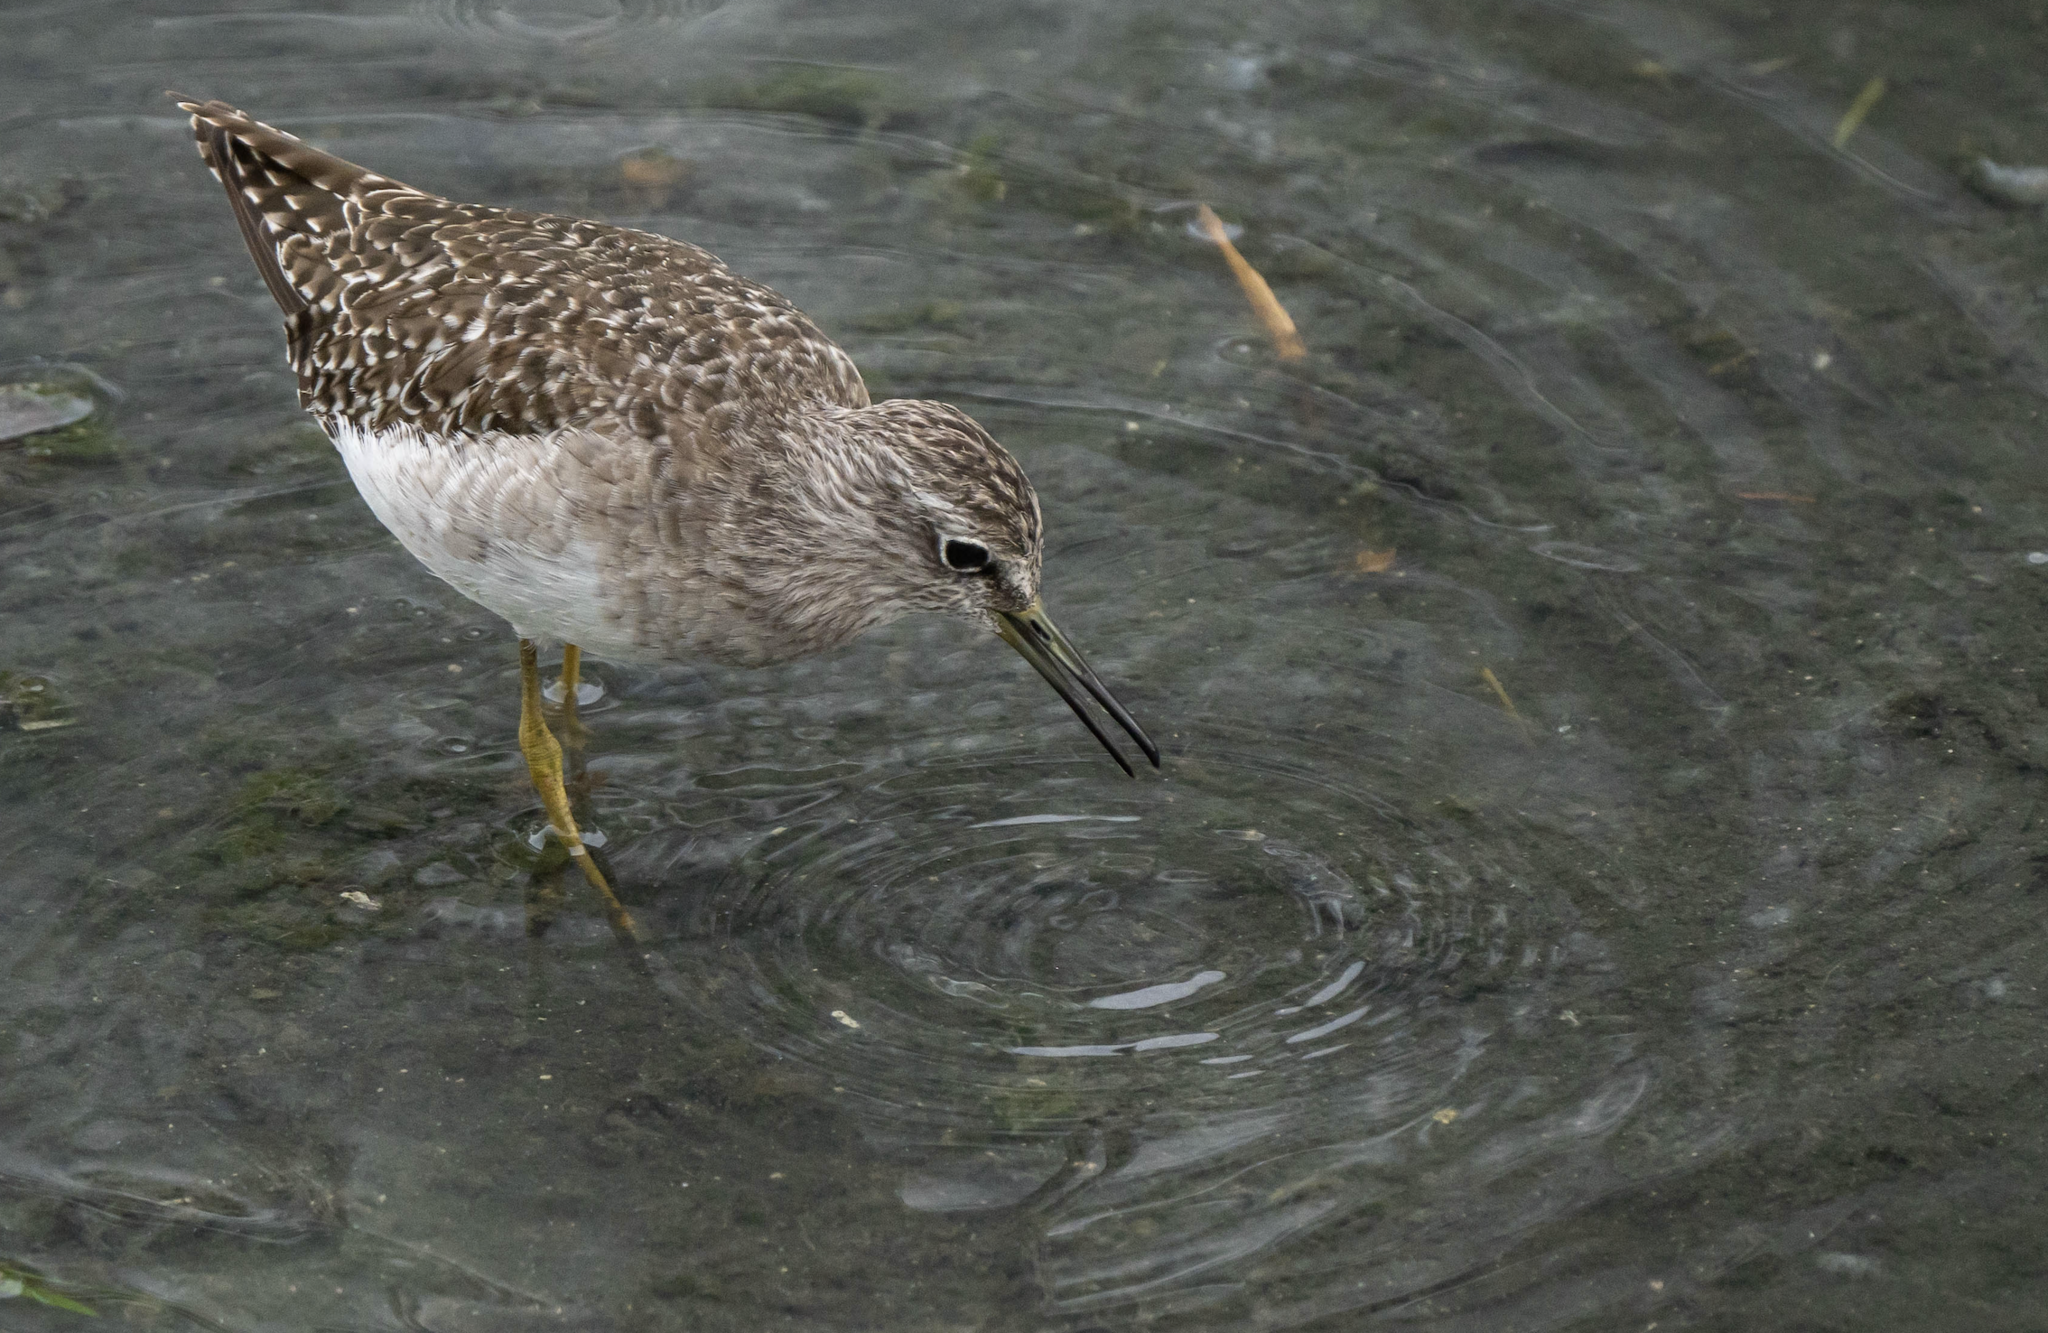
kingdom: Animalia
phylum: Chordata
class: Aves
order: Charadriiformes
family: Scolopacidae
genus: Tringa
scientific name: Tringa glareola
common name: Wood sandpiper
